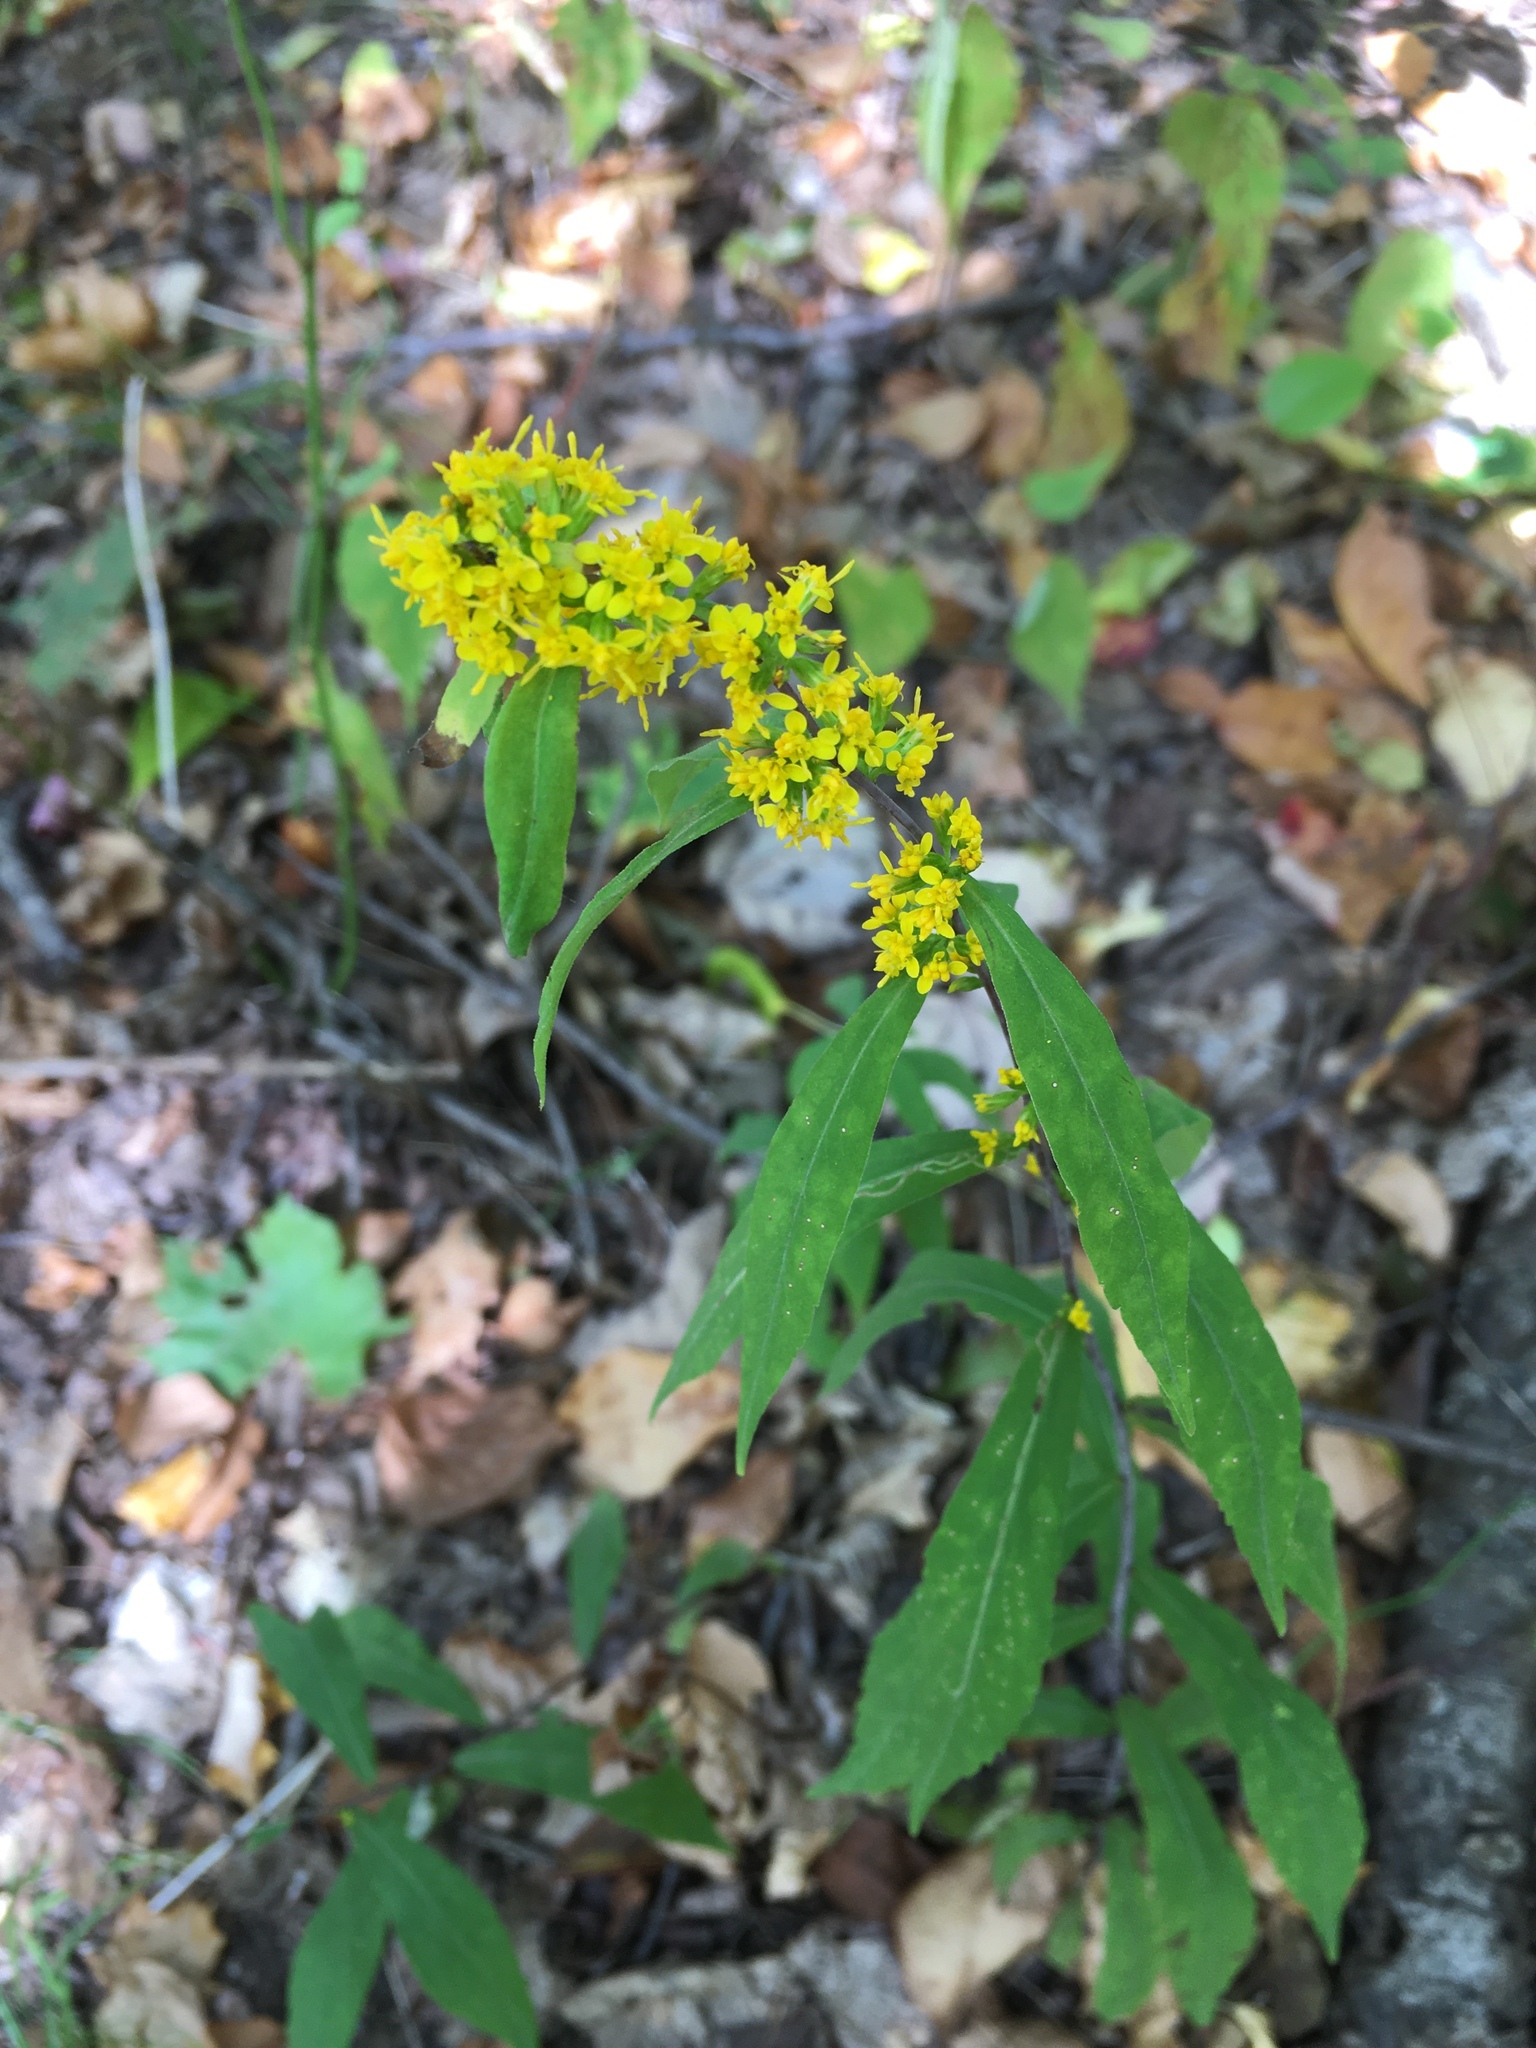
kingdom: Plantae
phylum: Tracheophyta
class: Magnoliopsida
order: Asterales
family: Asteraceae
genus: Solidago
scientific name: Solidago caesia
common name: Woodland goldenrod
